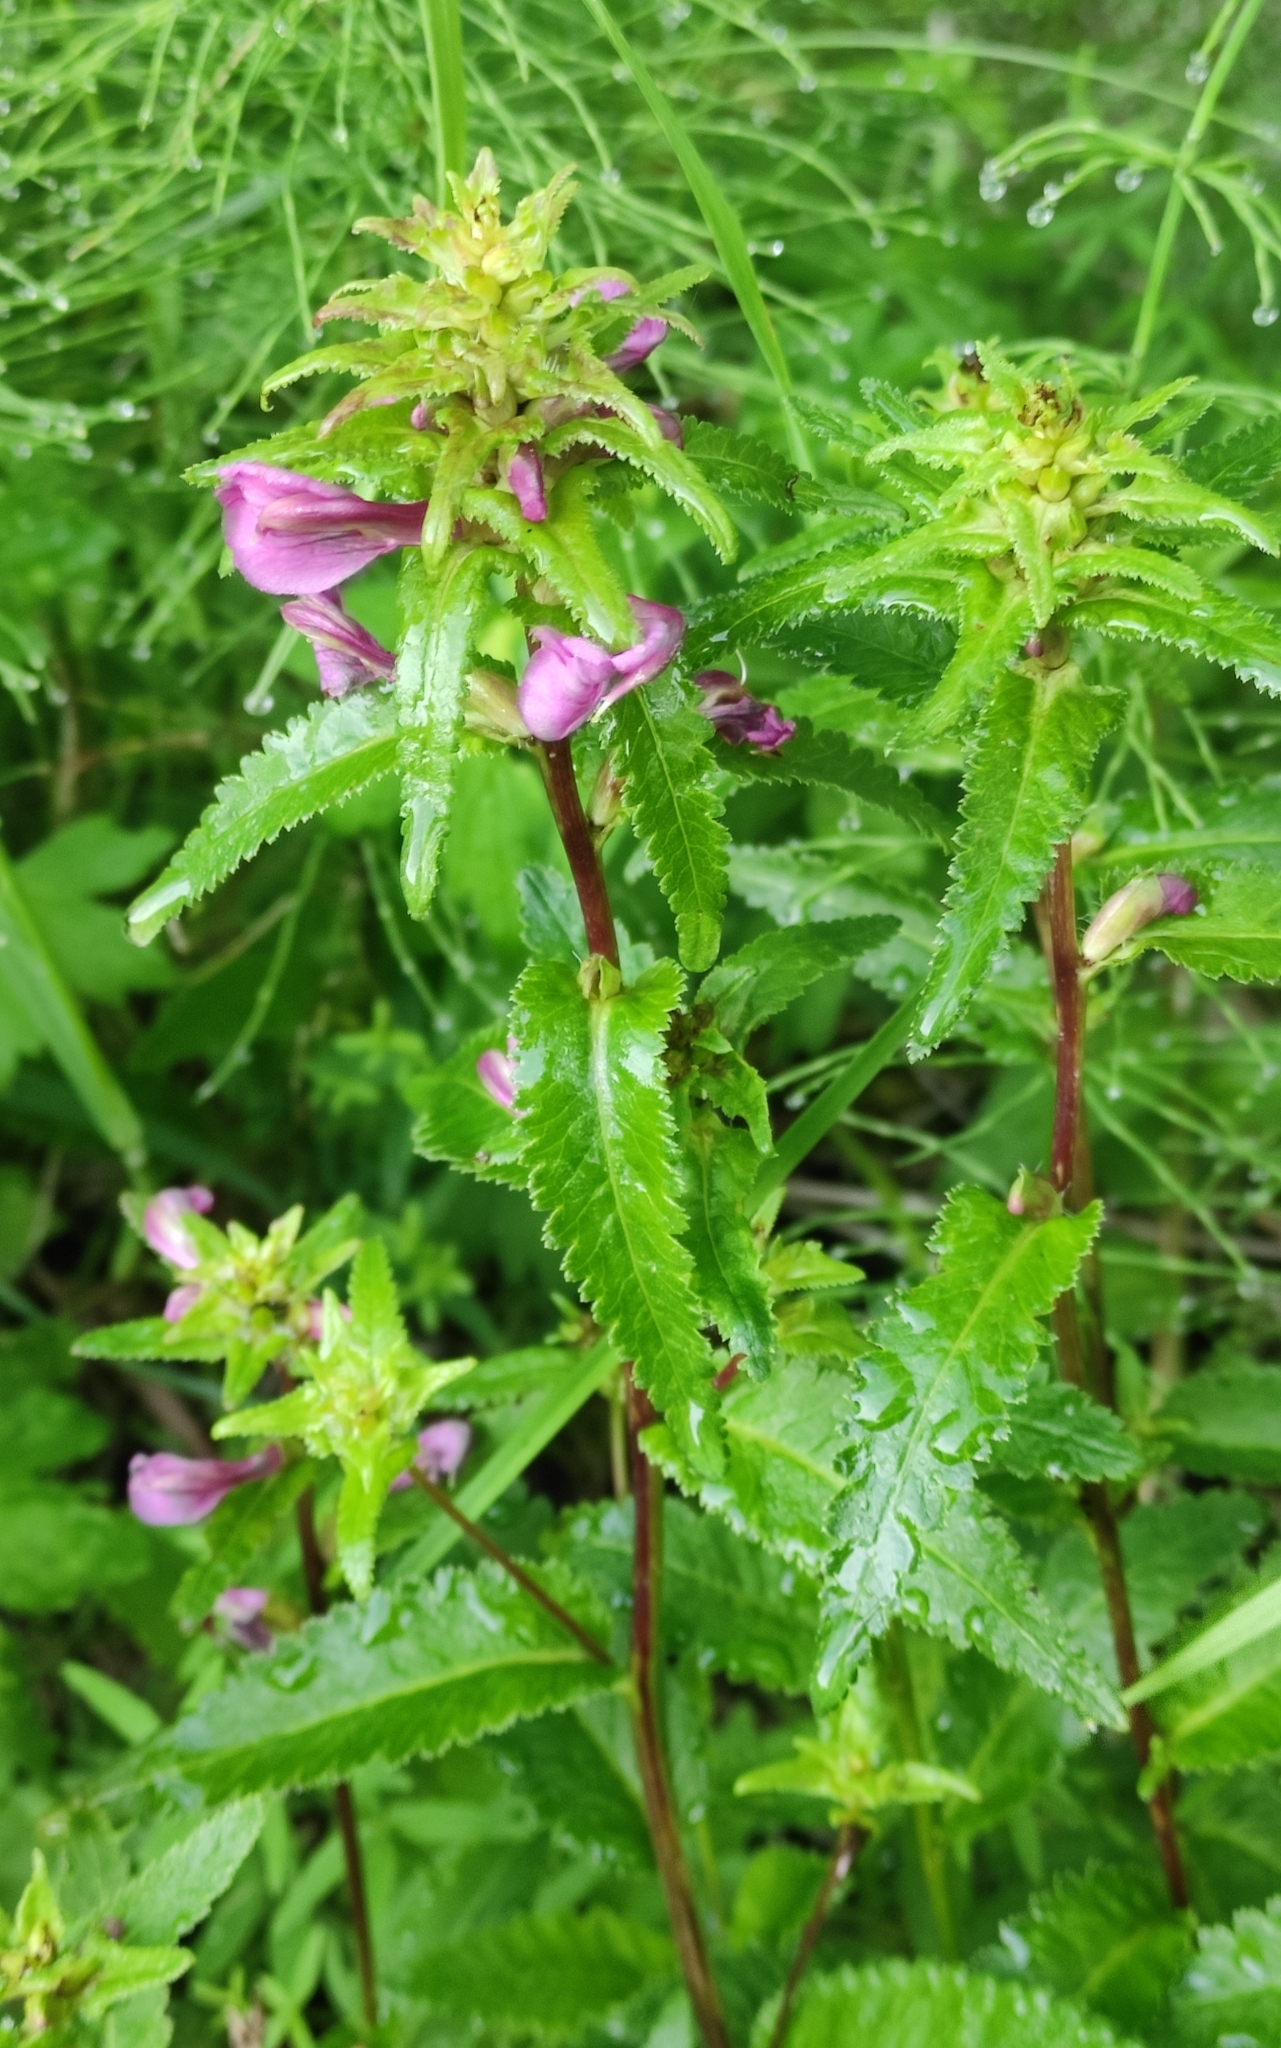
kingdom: Plantae
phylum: Tracheophyta
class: Magnoliopsida
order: Lamiales
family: Orobanchaceae
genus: Pedicularis
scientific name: Pedicularis resupinata
